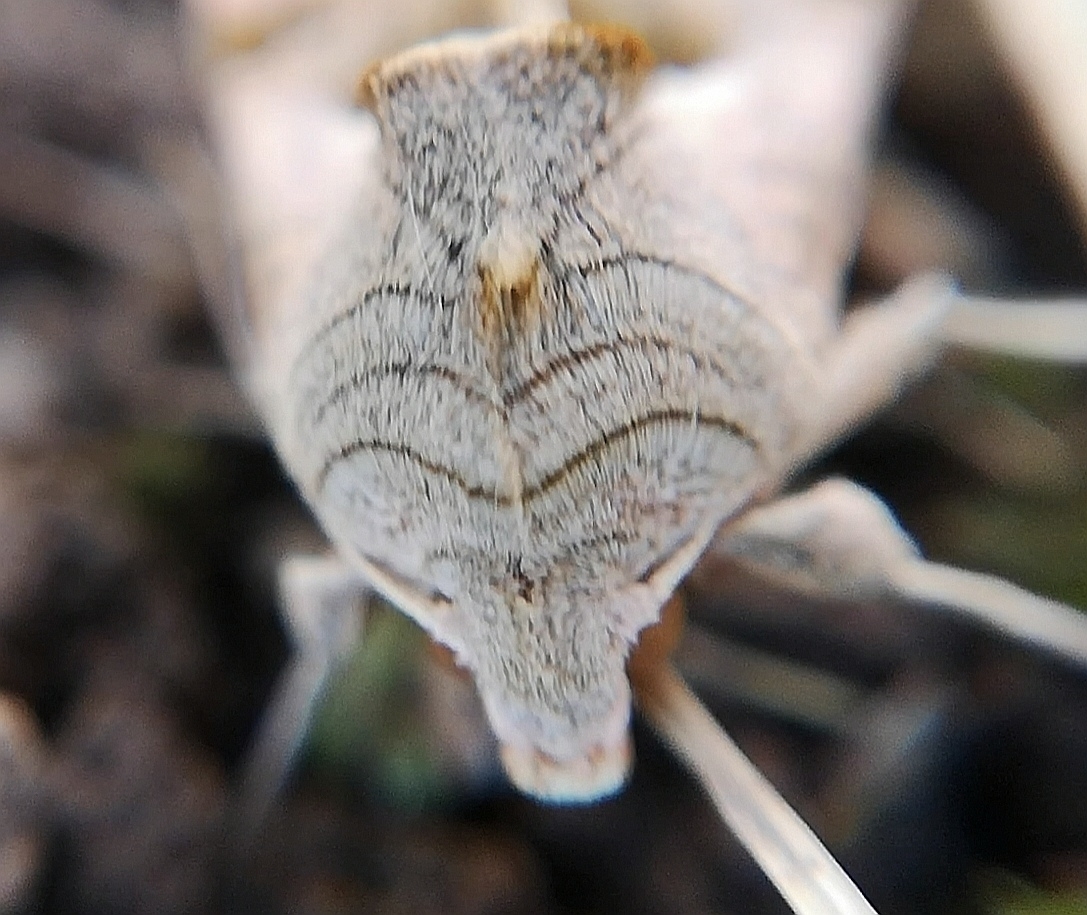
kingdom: Animalia
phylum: Arthropoda
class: Insecta
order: Lepidoptera
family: Noctuidae
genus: Phlogophora
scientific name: Phlogophora meticulosa
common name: Angle shades
